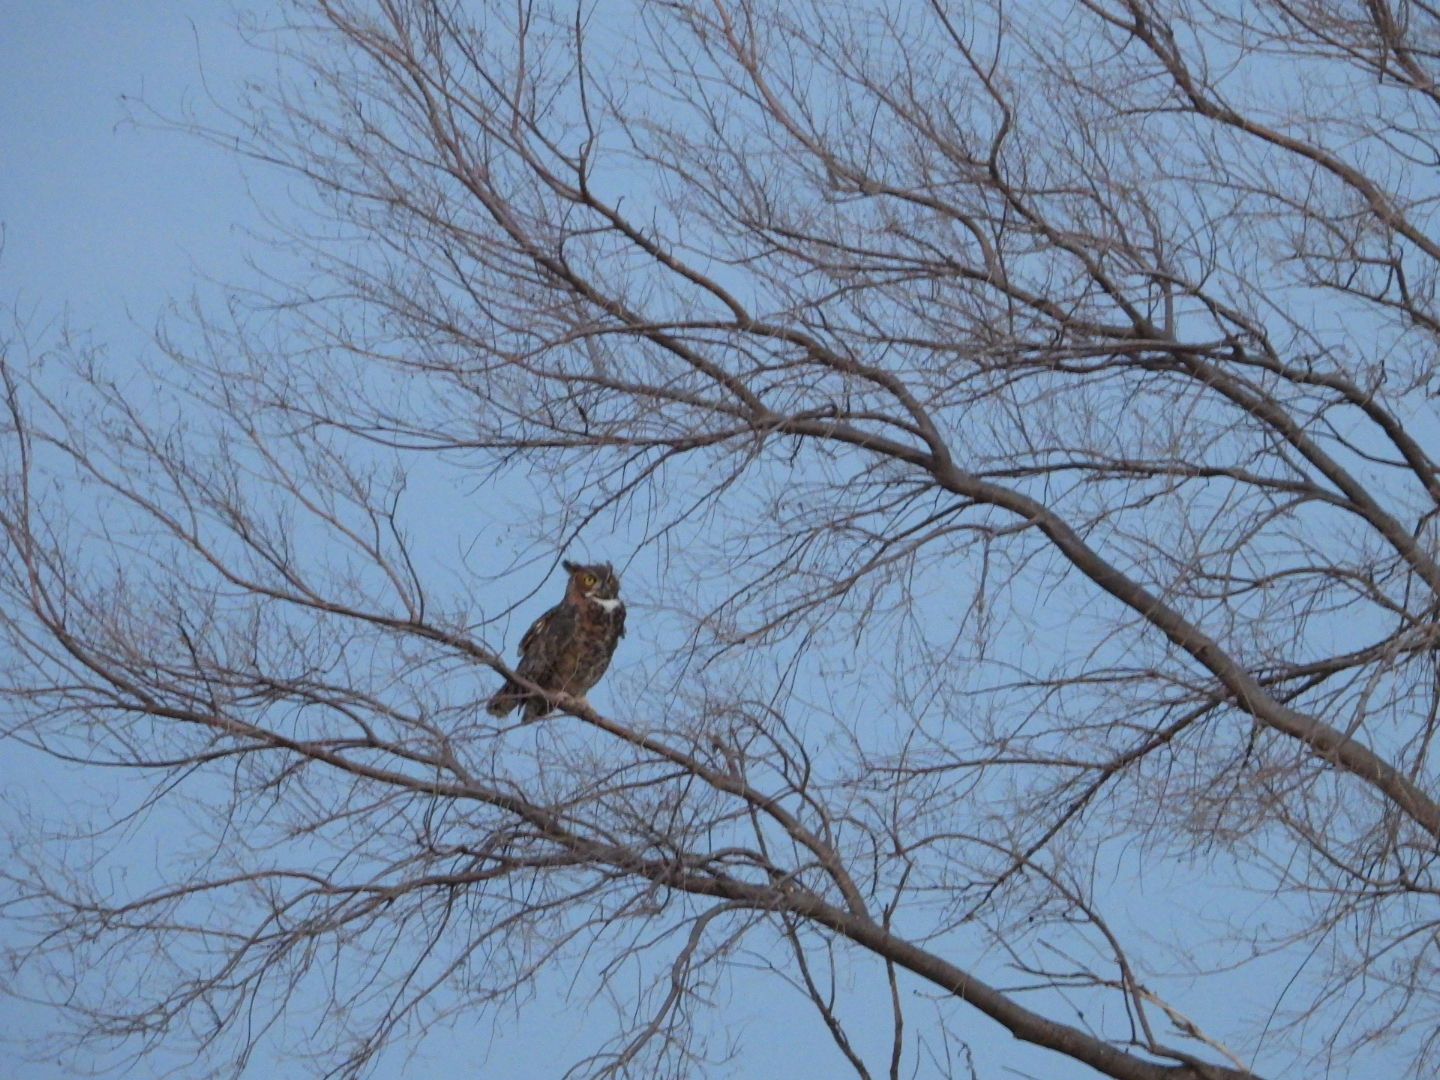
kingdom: Animalia
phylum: Chordata
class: Aves
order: Strigiformes
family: Strigidae
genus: Bubo
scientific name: Bubo virginianus
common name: Great horned owl
